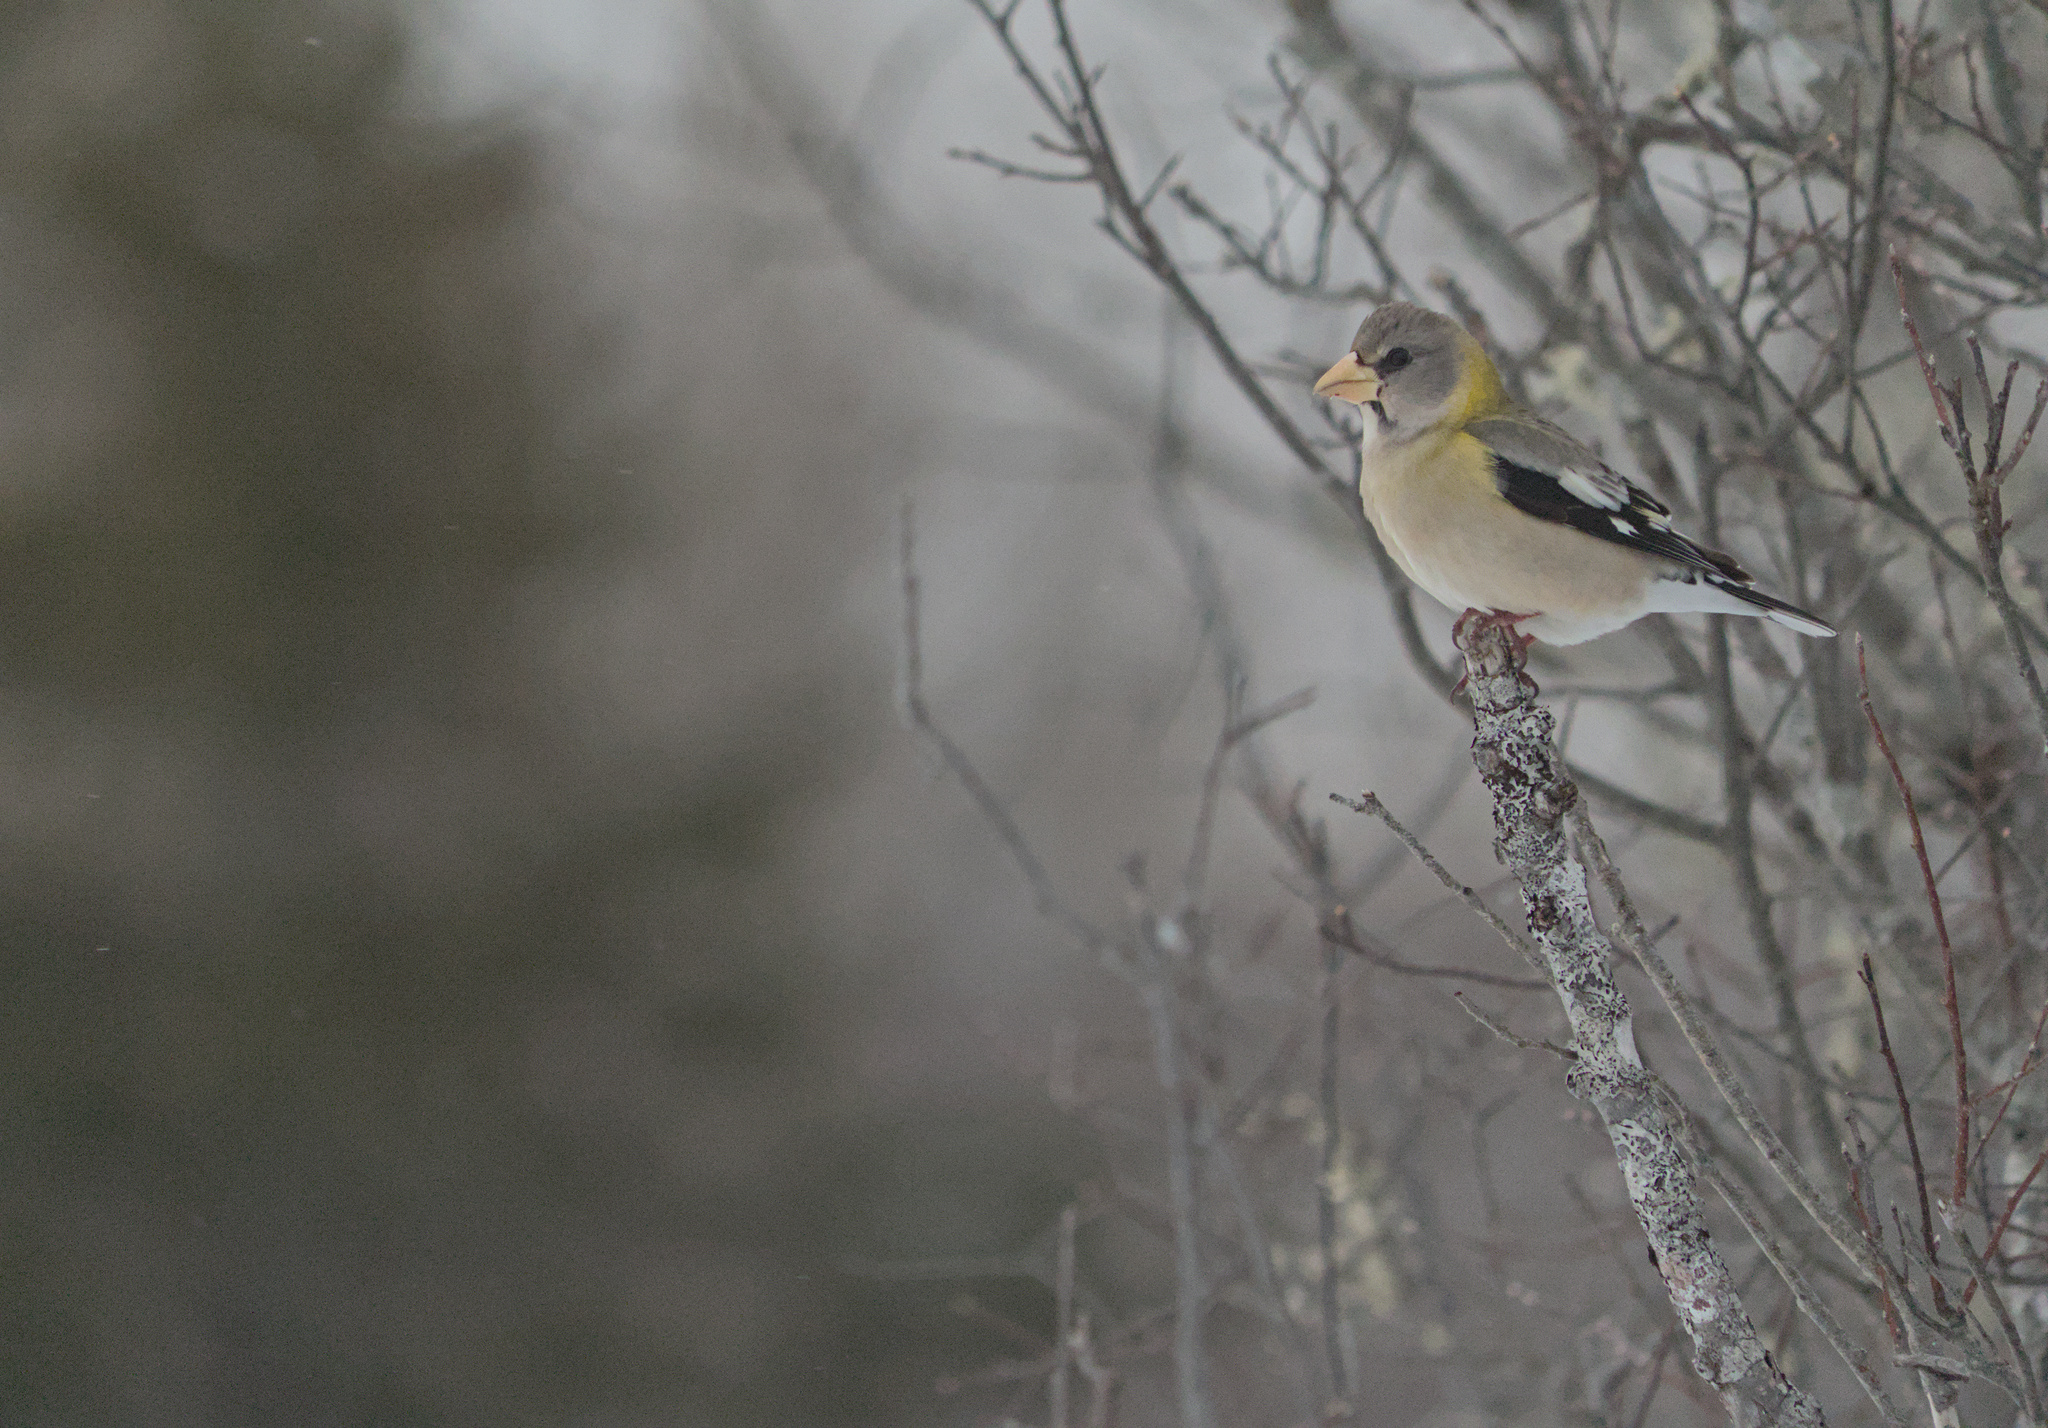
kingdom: Animalia
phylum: Chordata
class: Aves
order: Passeriformes
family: Fringillidae
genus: Hesperiphona
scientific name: Hesperiphona vespertina
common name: Evening grosbeak
